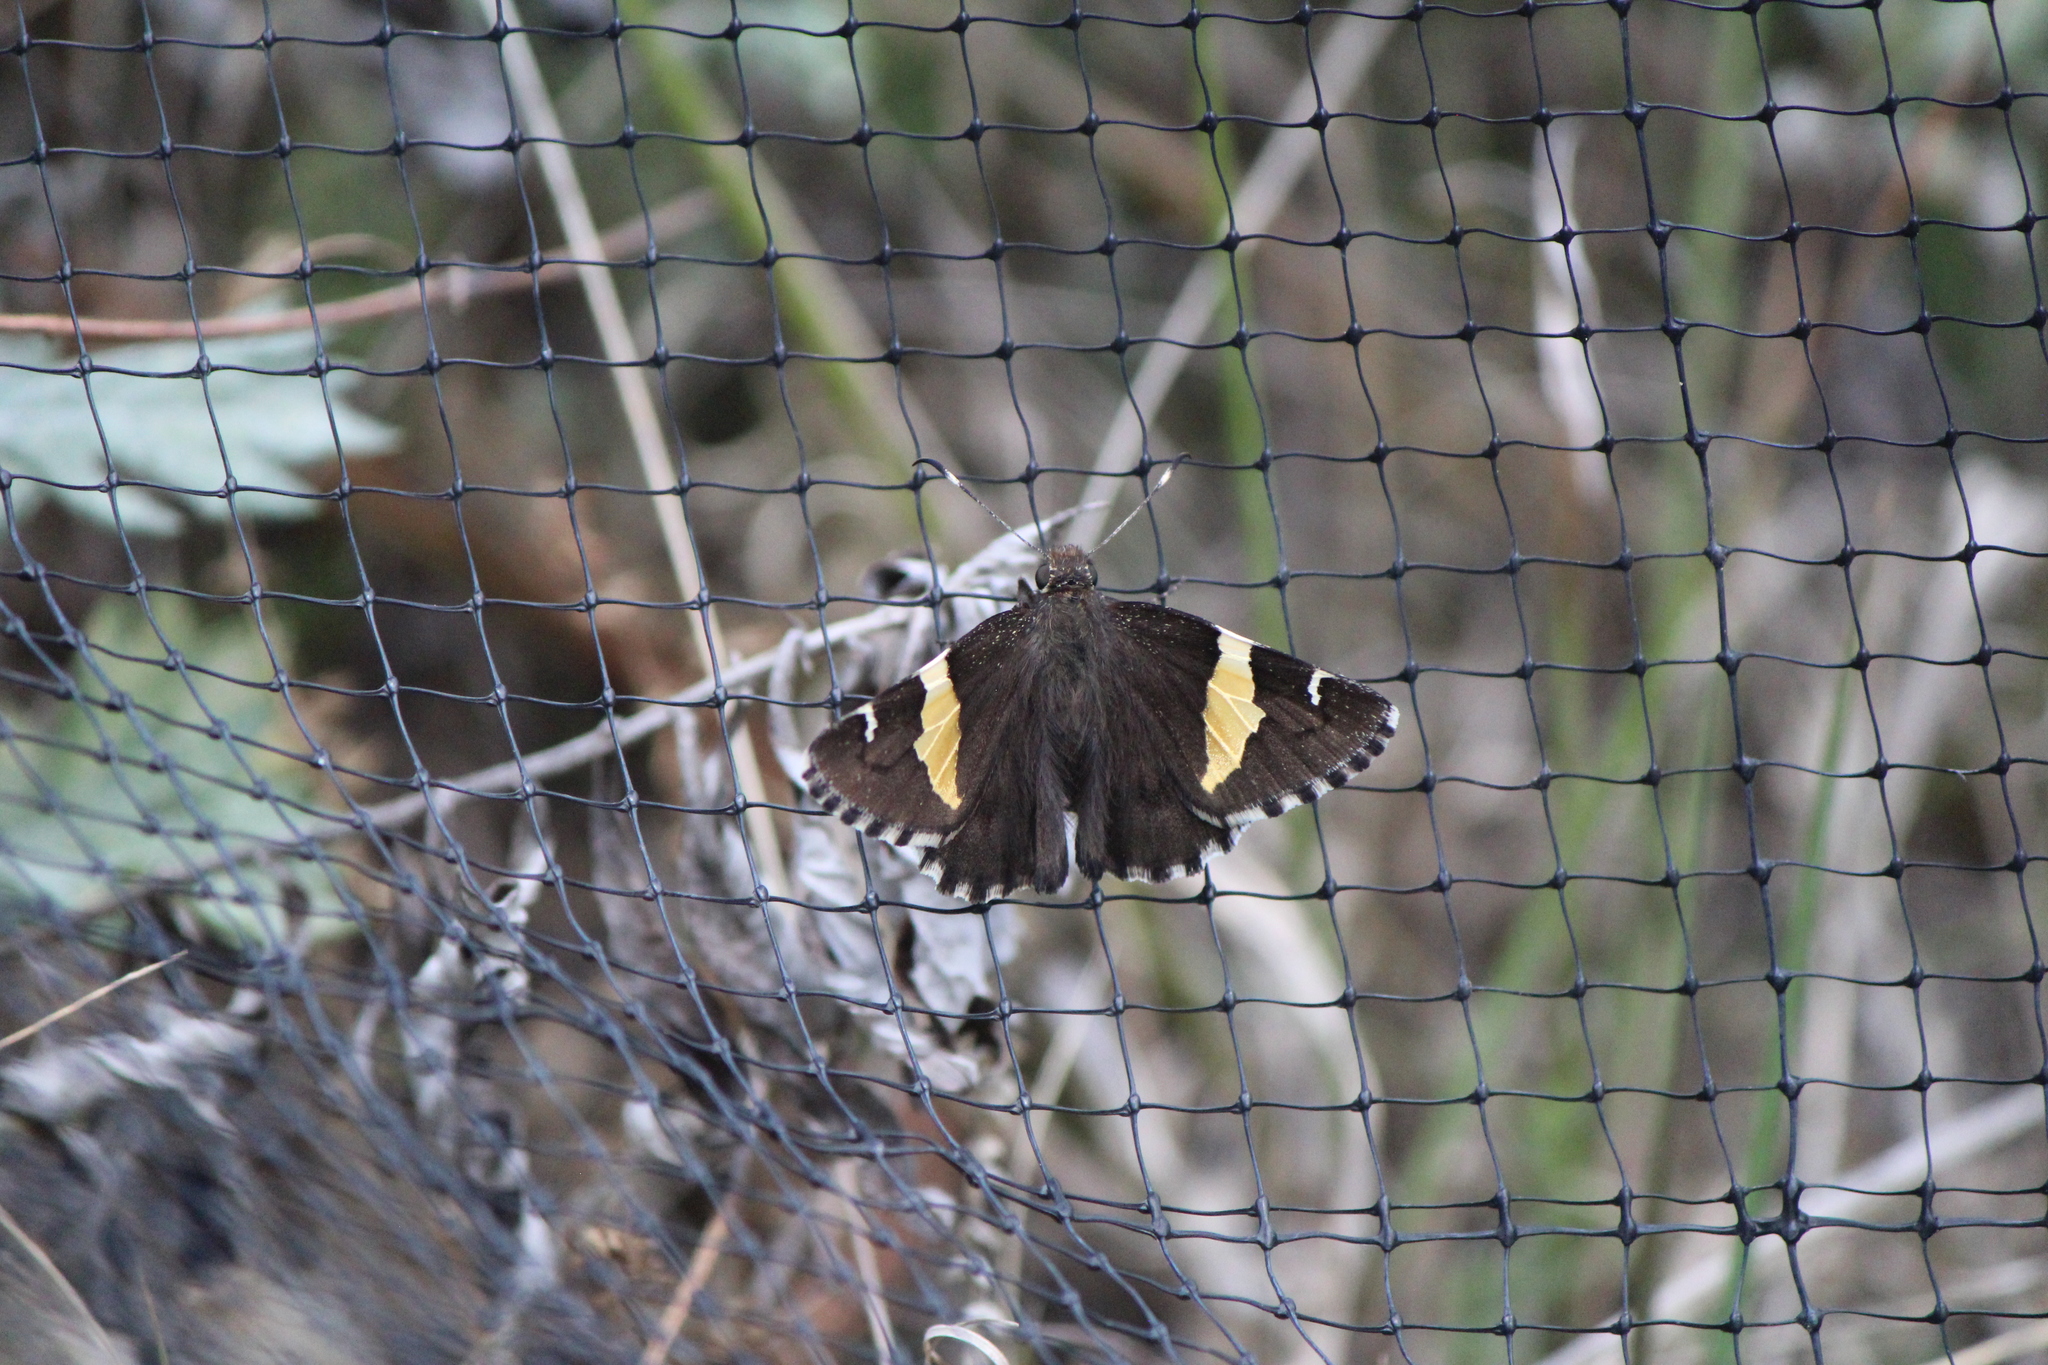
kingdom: Animalia
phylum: Arthropoda
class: Insecta
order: Lepidoptera
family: Hesperiidae
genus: Thorybes
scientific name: Thorybes pseudocellus
